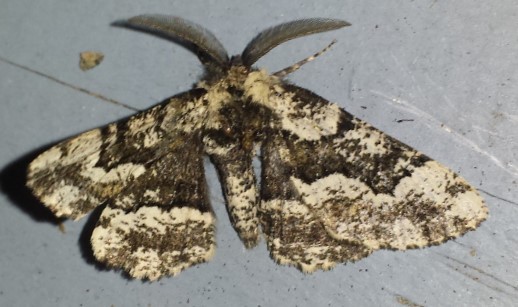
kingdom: Animalia
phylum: Arthropoda
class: Insecta
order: Lepidoptera
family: Geometridae
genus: Phaeoura
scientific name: Phaeoura quernaria
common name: Oak beauty
